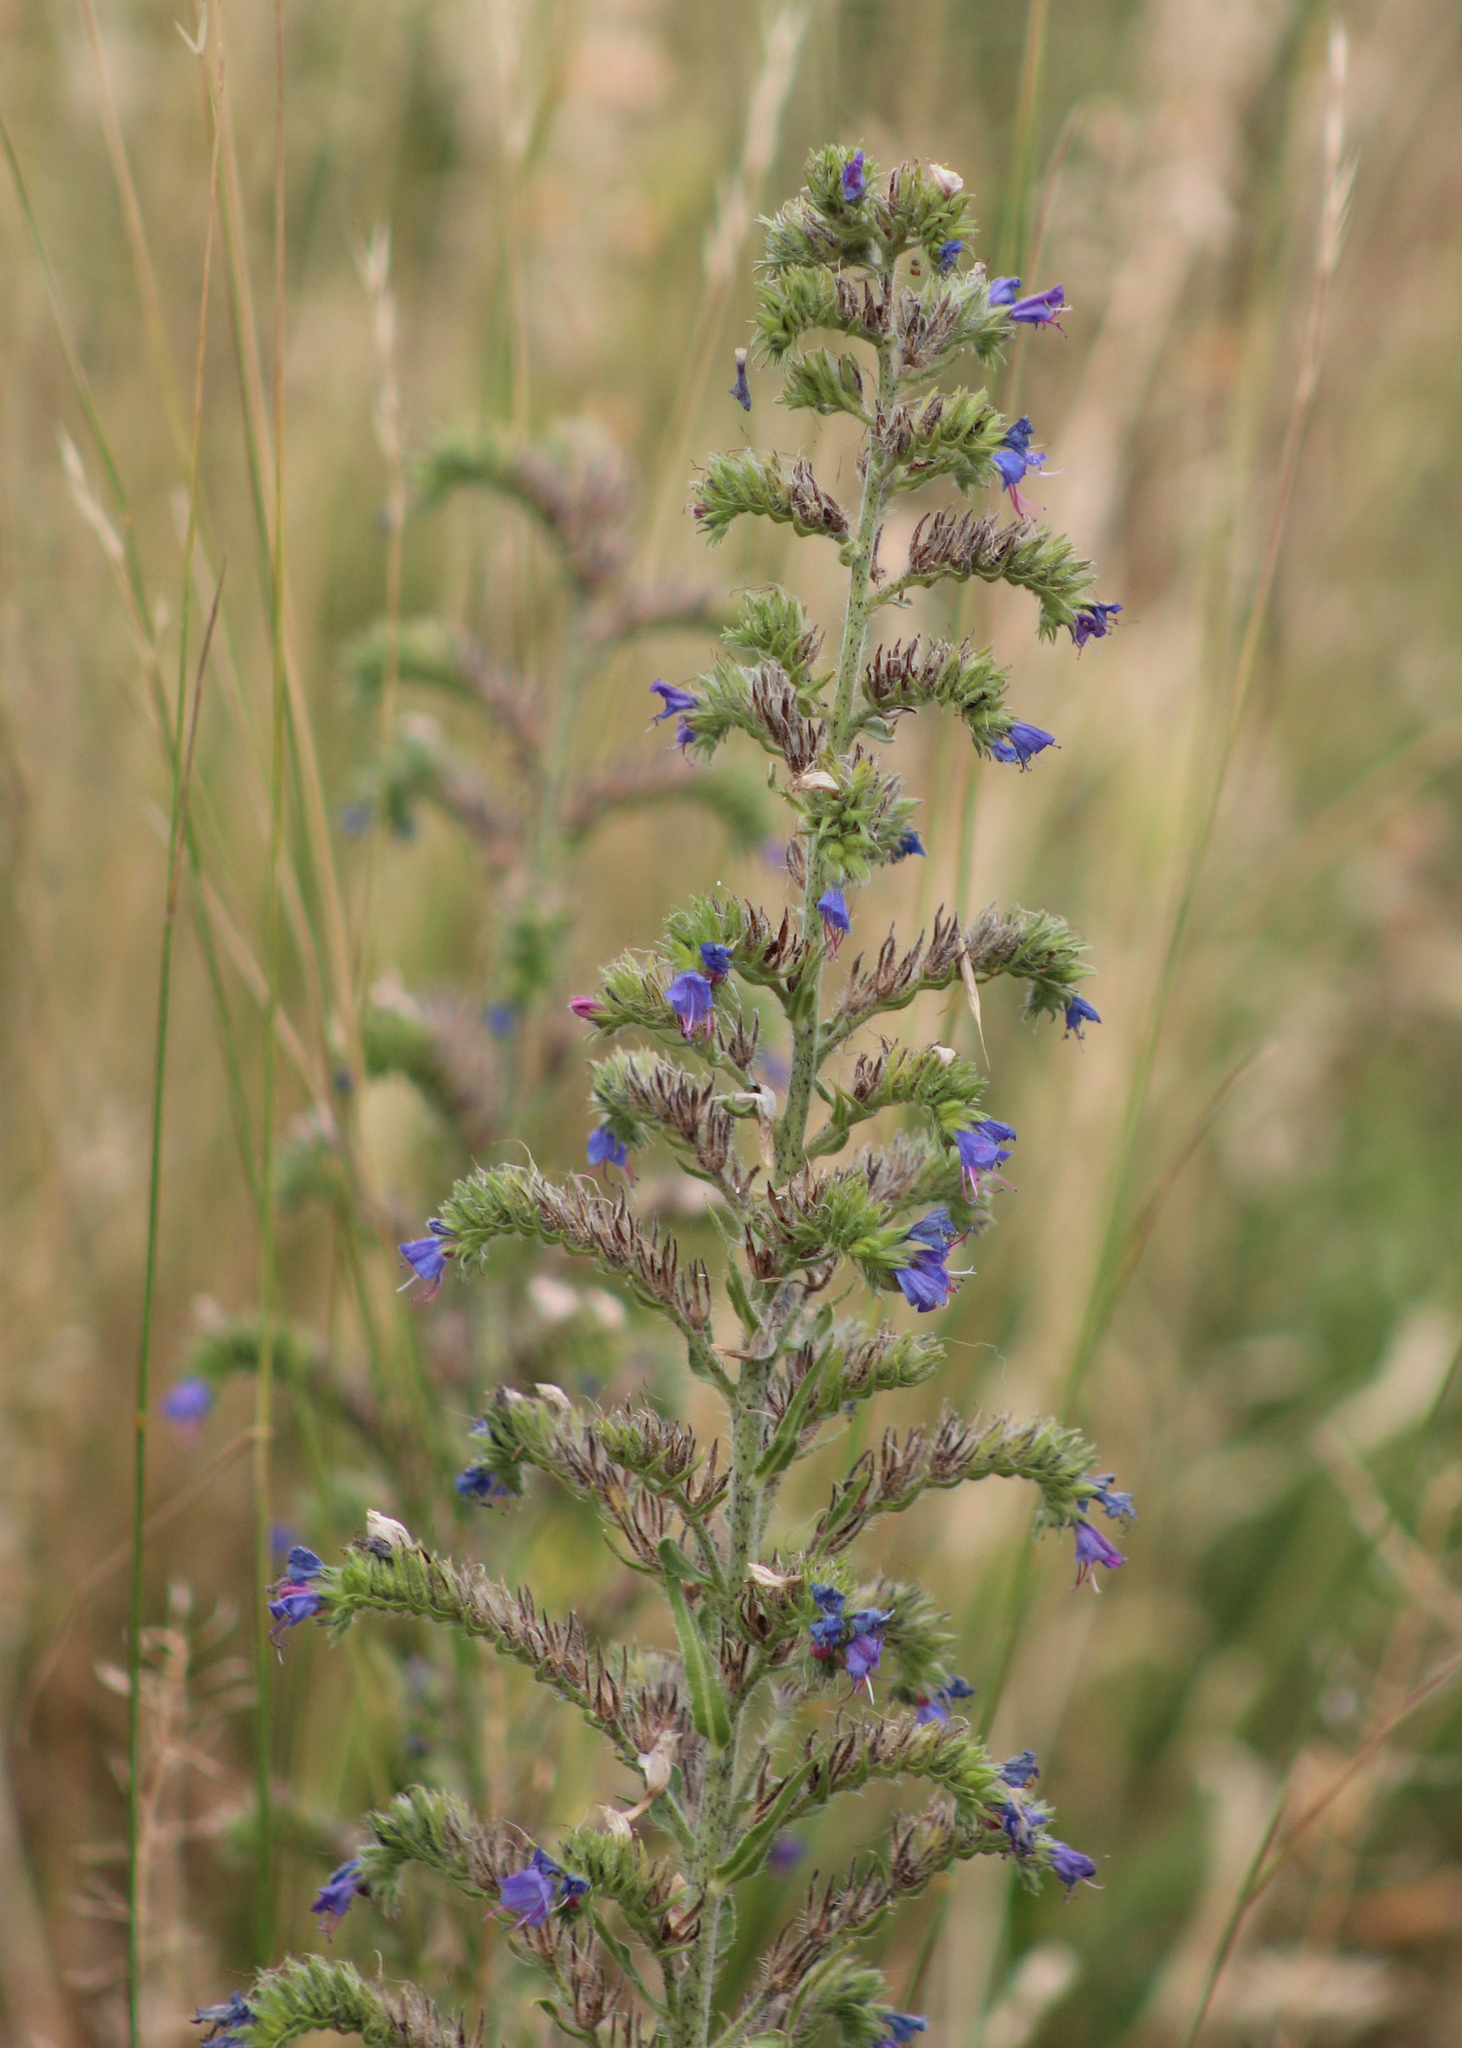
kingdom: Plantae
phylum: Tracheophyta
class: Magnoliopsida
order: Boraginales
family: Boraginaceae
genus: Echium
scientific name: Echium vulgare
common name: Common viper's bugloss
